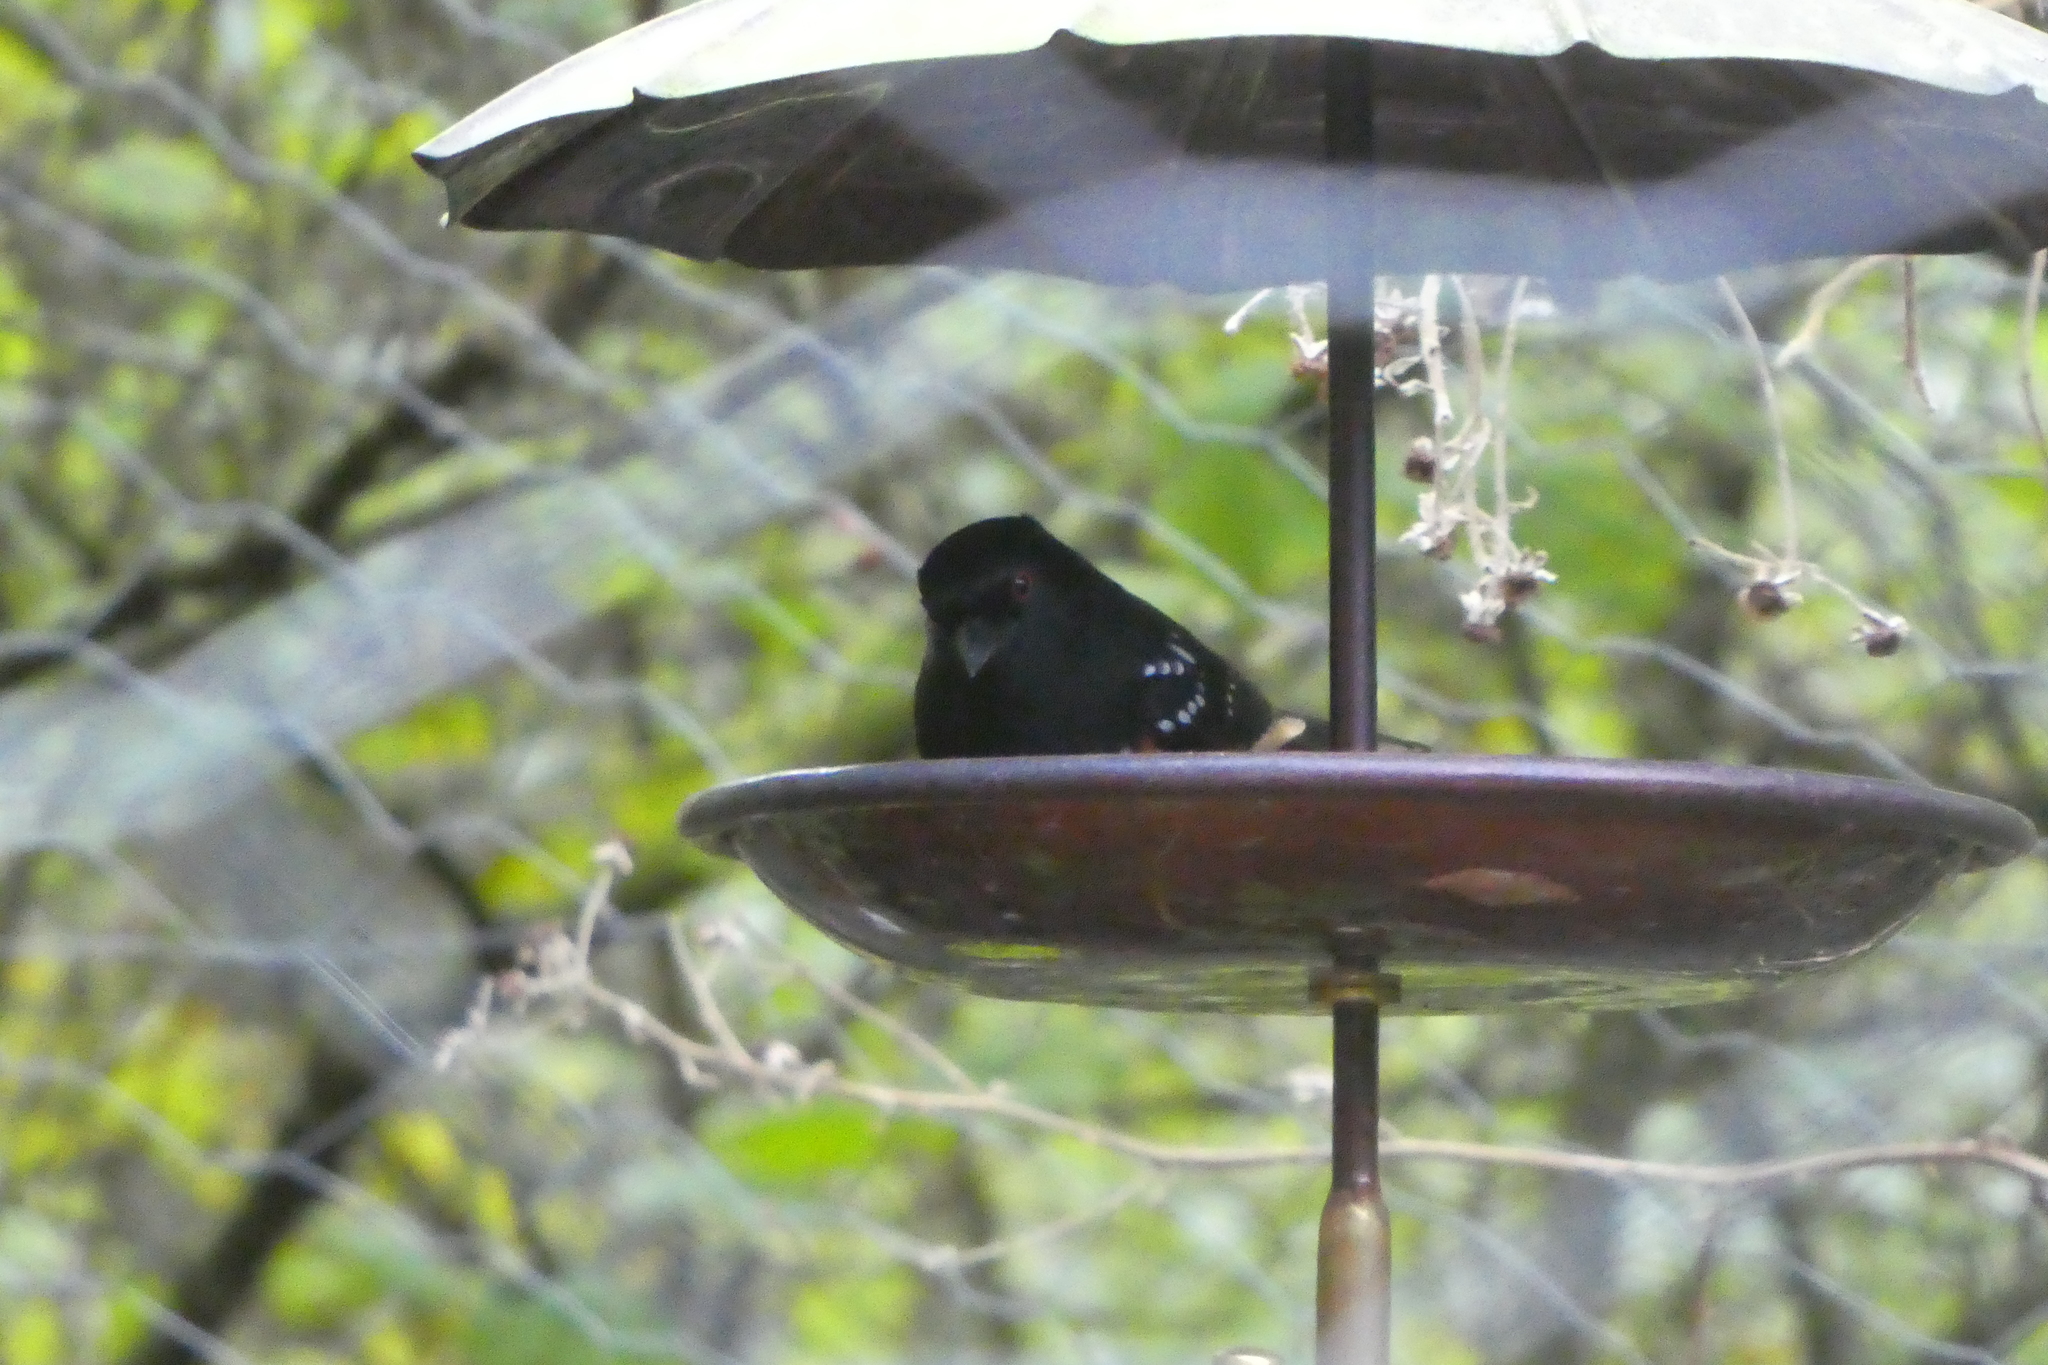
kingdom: Animalia
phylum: Chordata
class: Aves
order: Passeriformes
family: Passerellidae
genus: Pipilo
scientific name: Pipilo maculatus
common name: Spotted towhee
